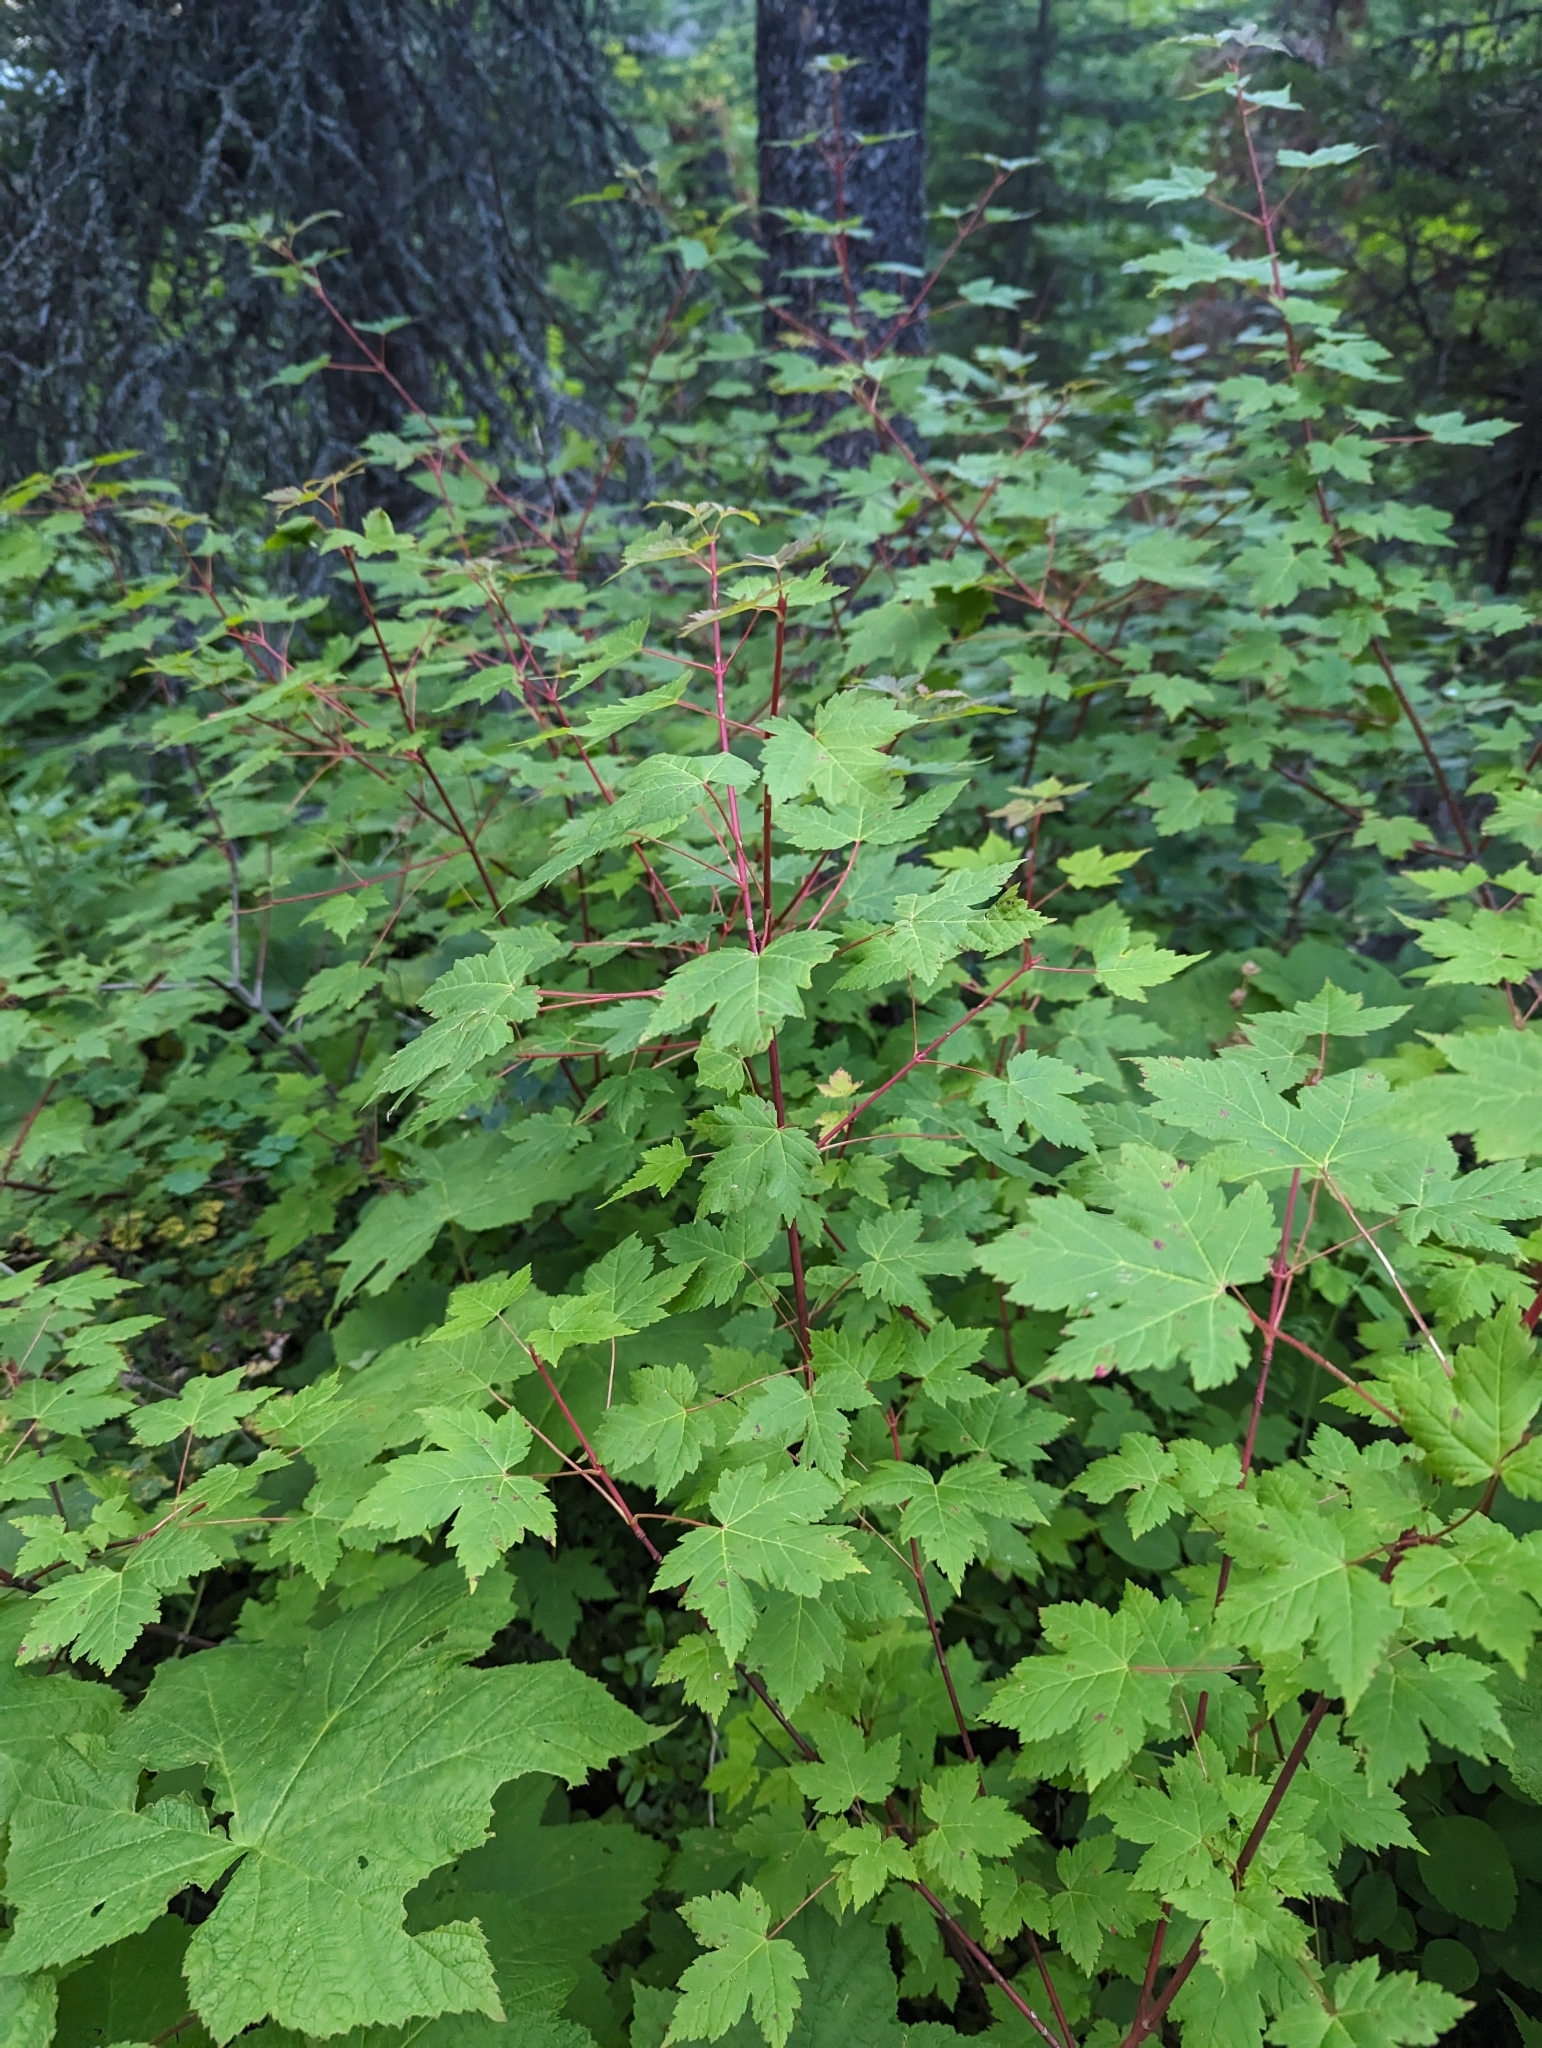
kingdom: Plantae
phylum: Tracheophyta
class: Magnoliopsida
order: Sapindales
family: Sapindaceae
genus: Acer
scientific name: Acer glabrum
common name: Rocky mountain maple
